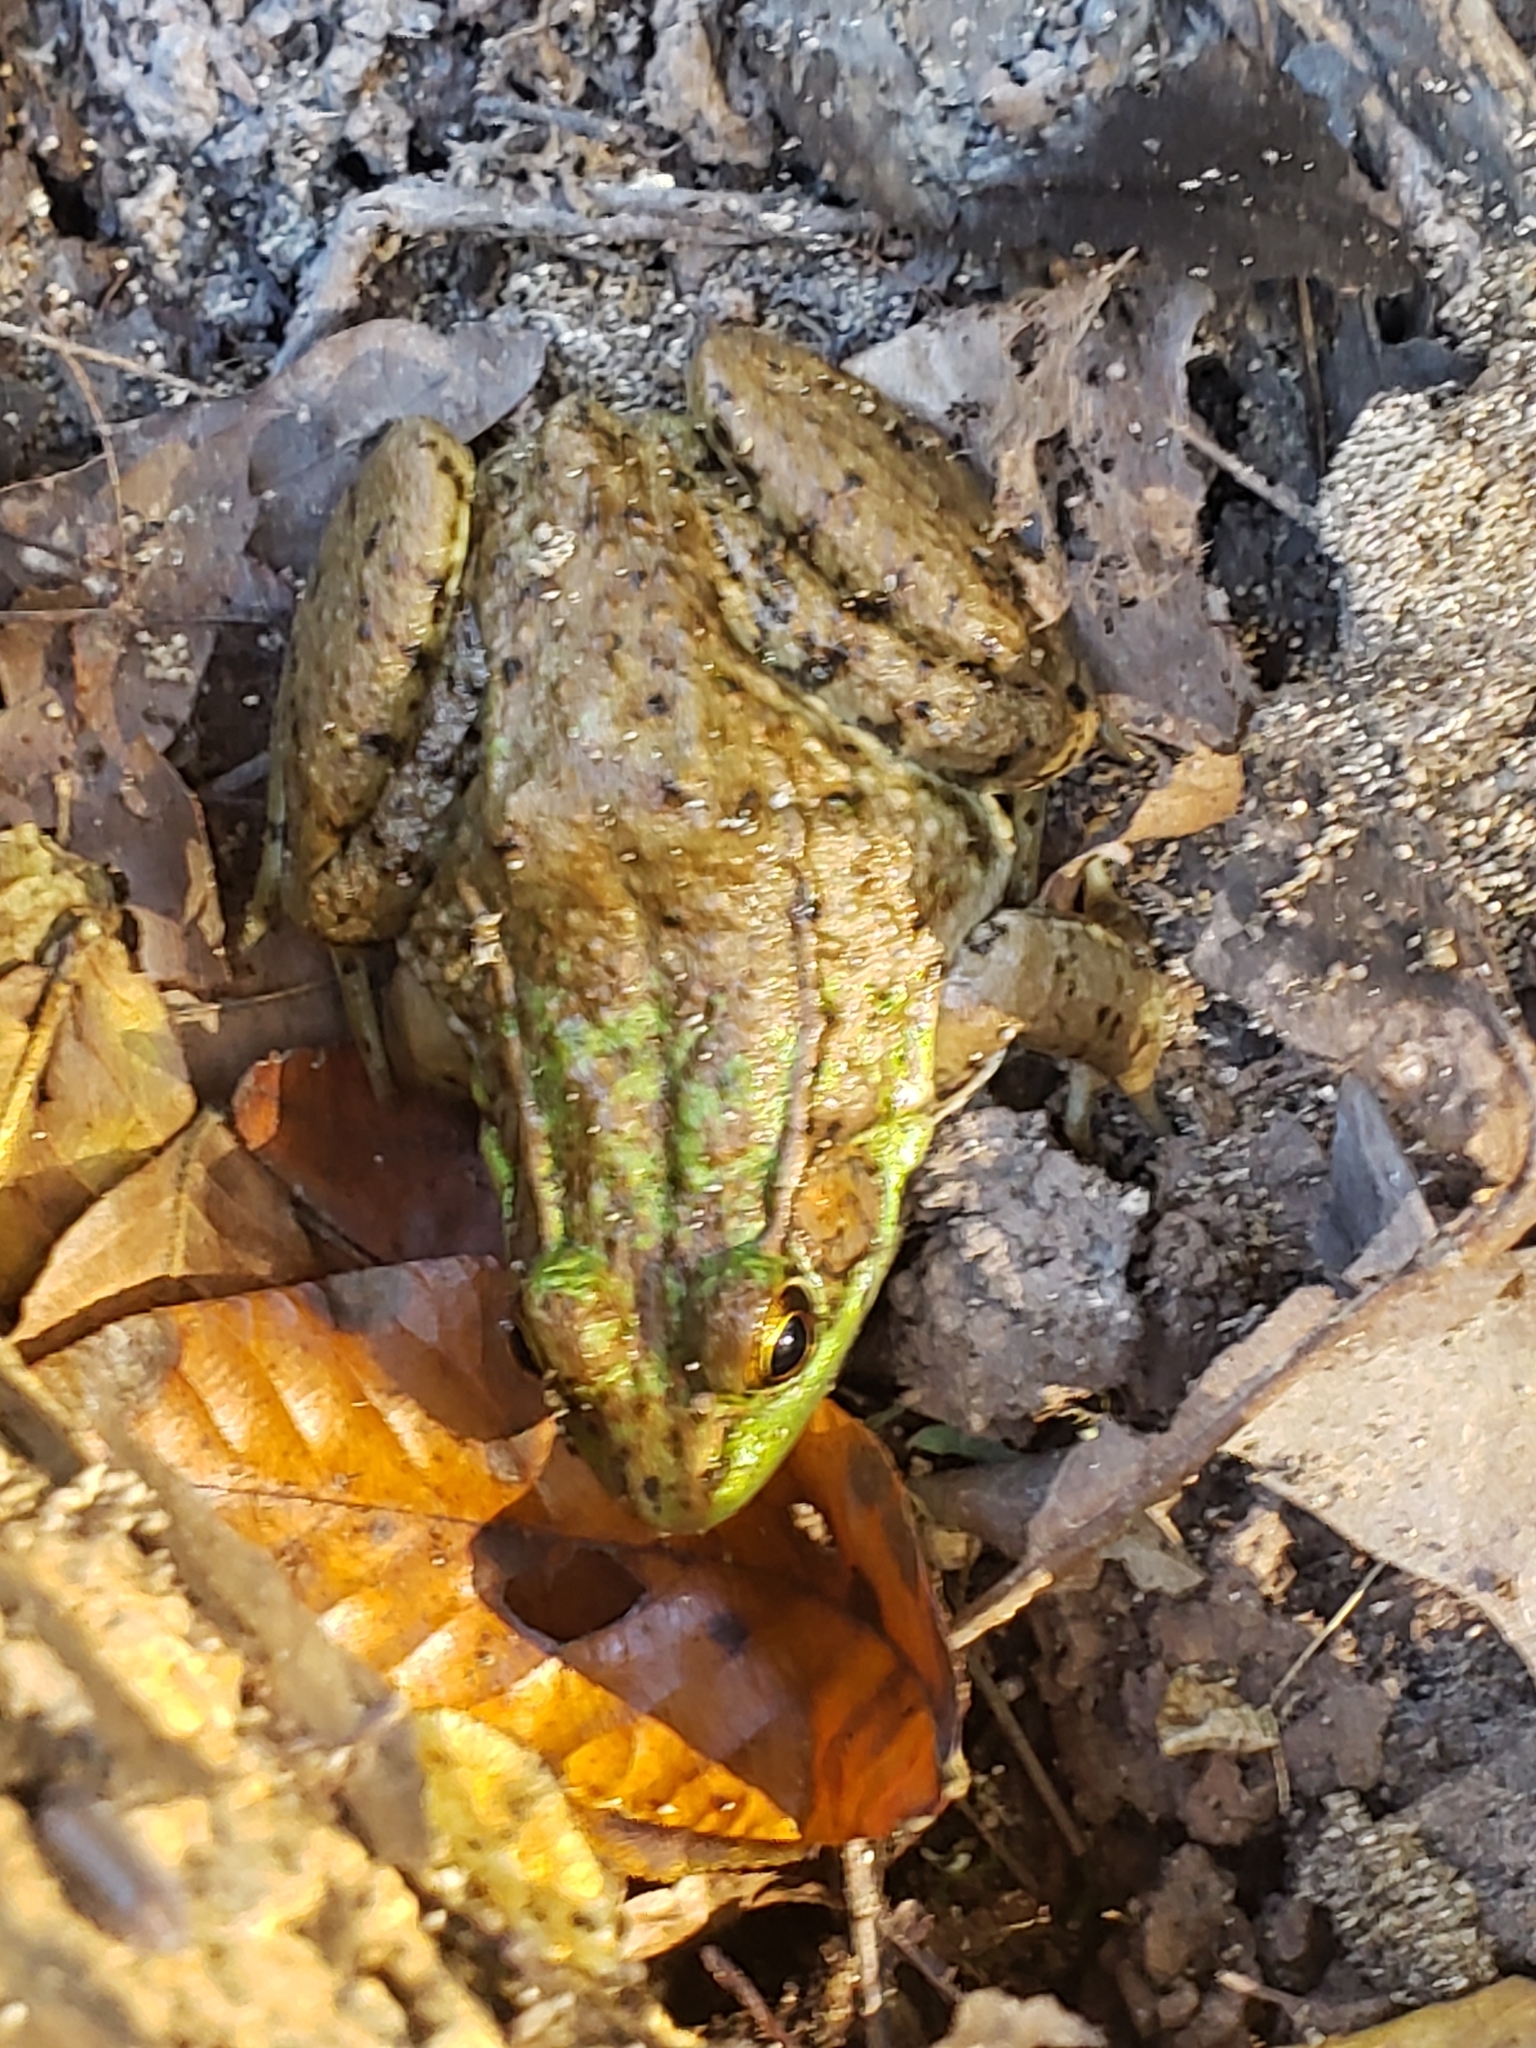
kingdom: Animalia
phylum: Chordata
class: Amphibia
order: Anura
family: Ranidae
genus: Lithobates
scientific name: Lithobates clamitans
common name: Green frog
